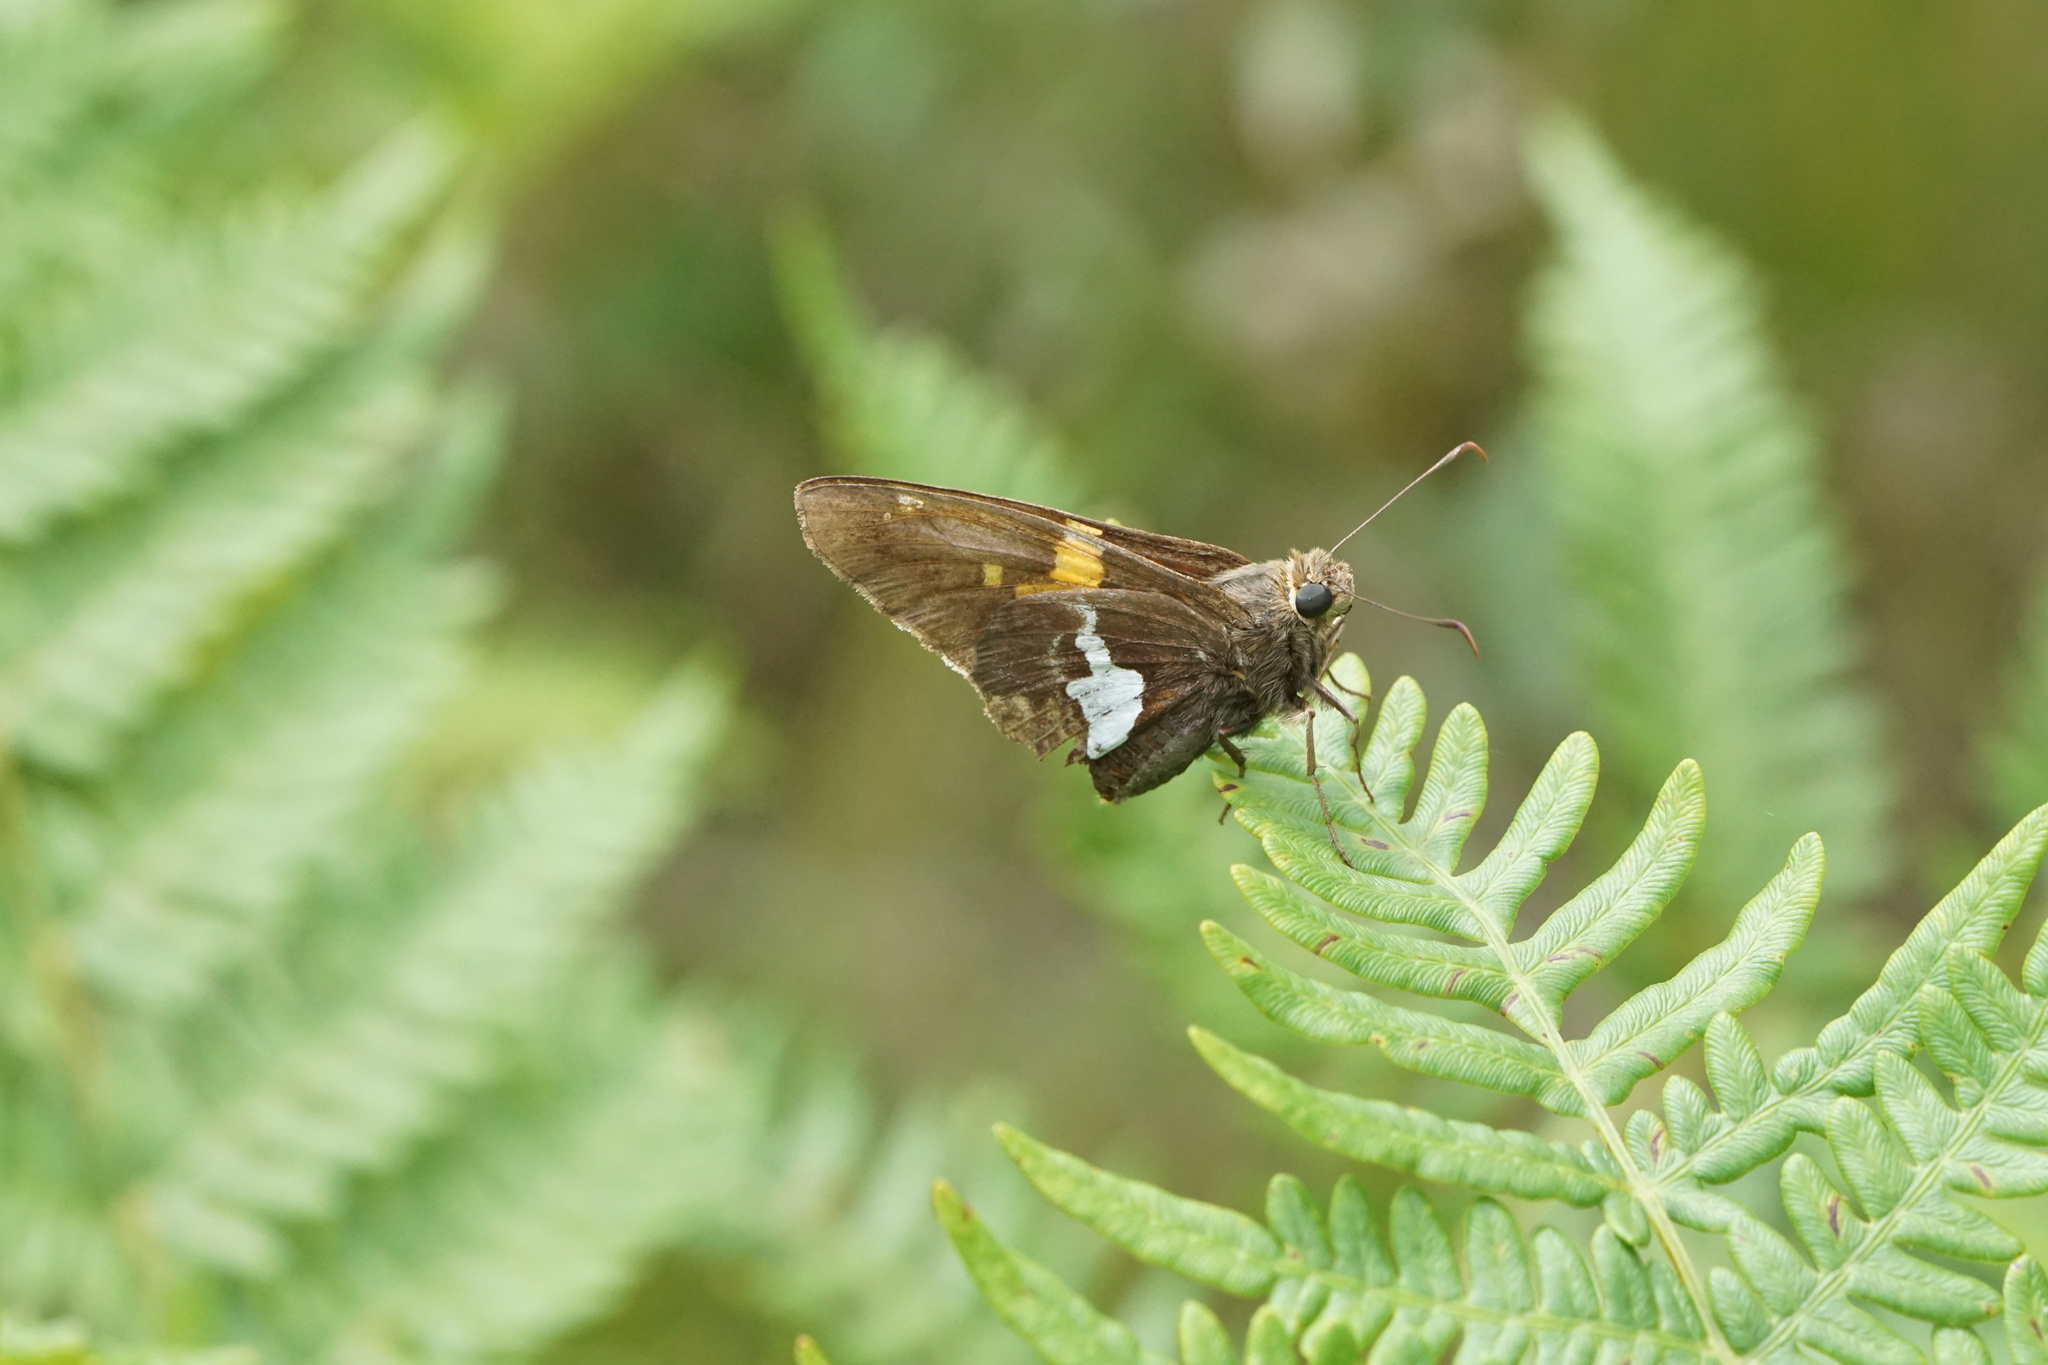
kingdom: Animalia
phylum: Arthropoda
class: Insecta
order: Lepidoptera
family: Hesperiidae
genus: Epargyreus
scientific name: Epargyreus clarus
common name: Silver-spotted skipper
